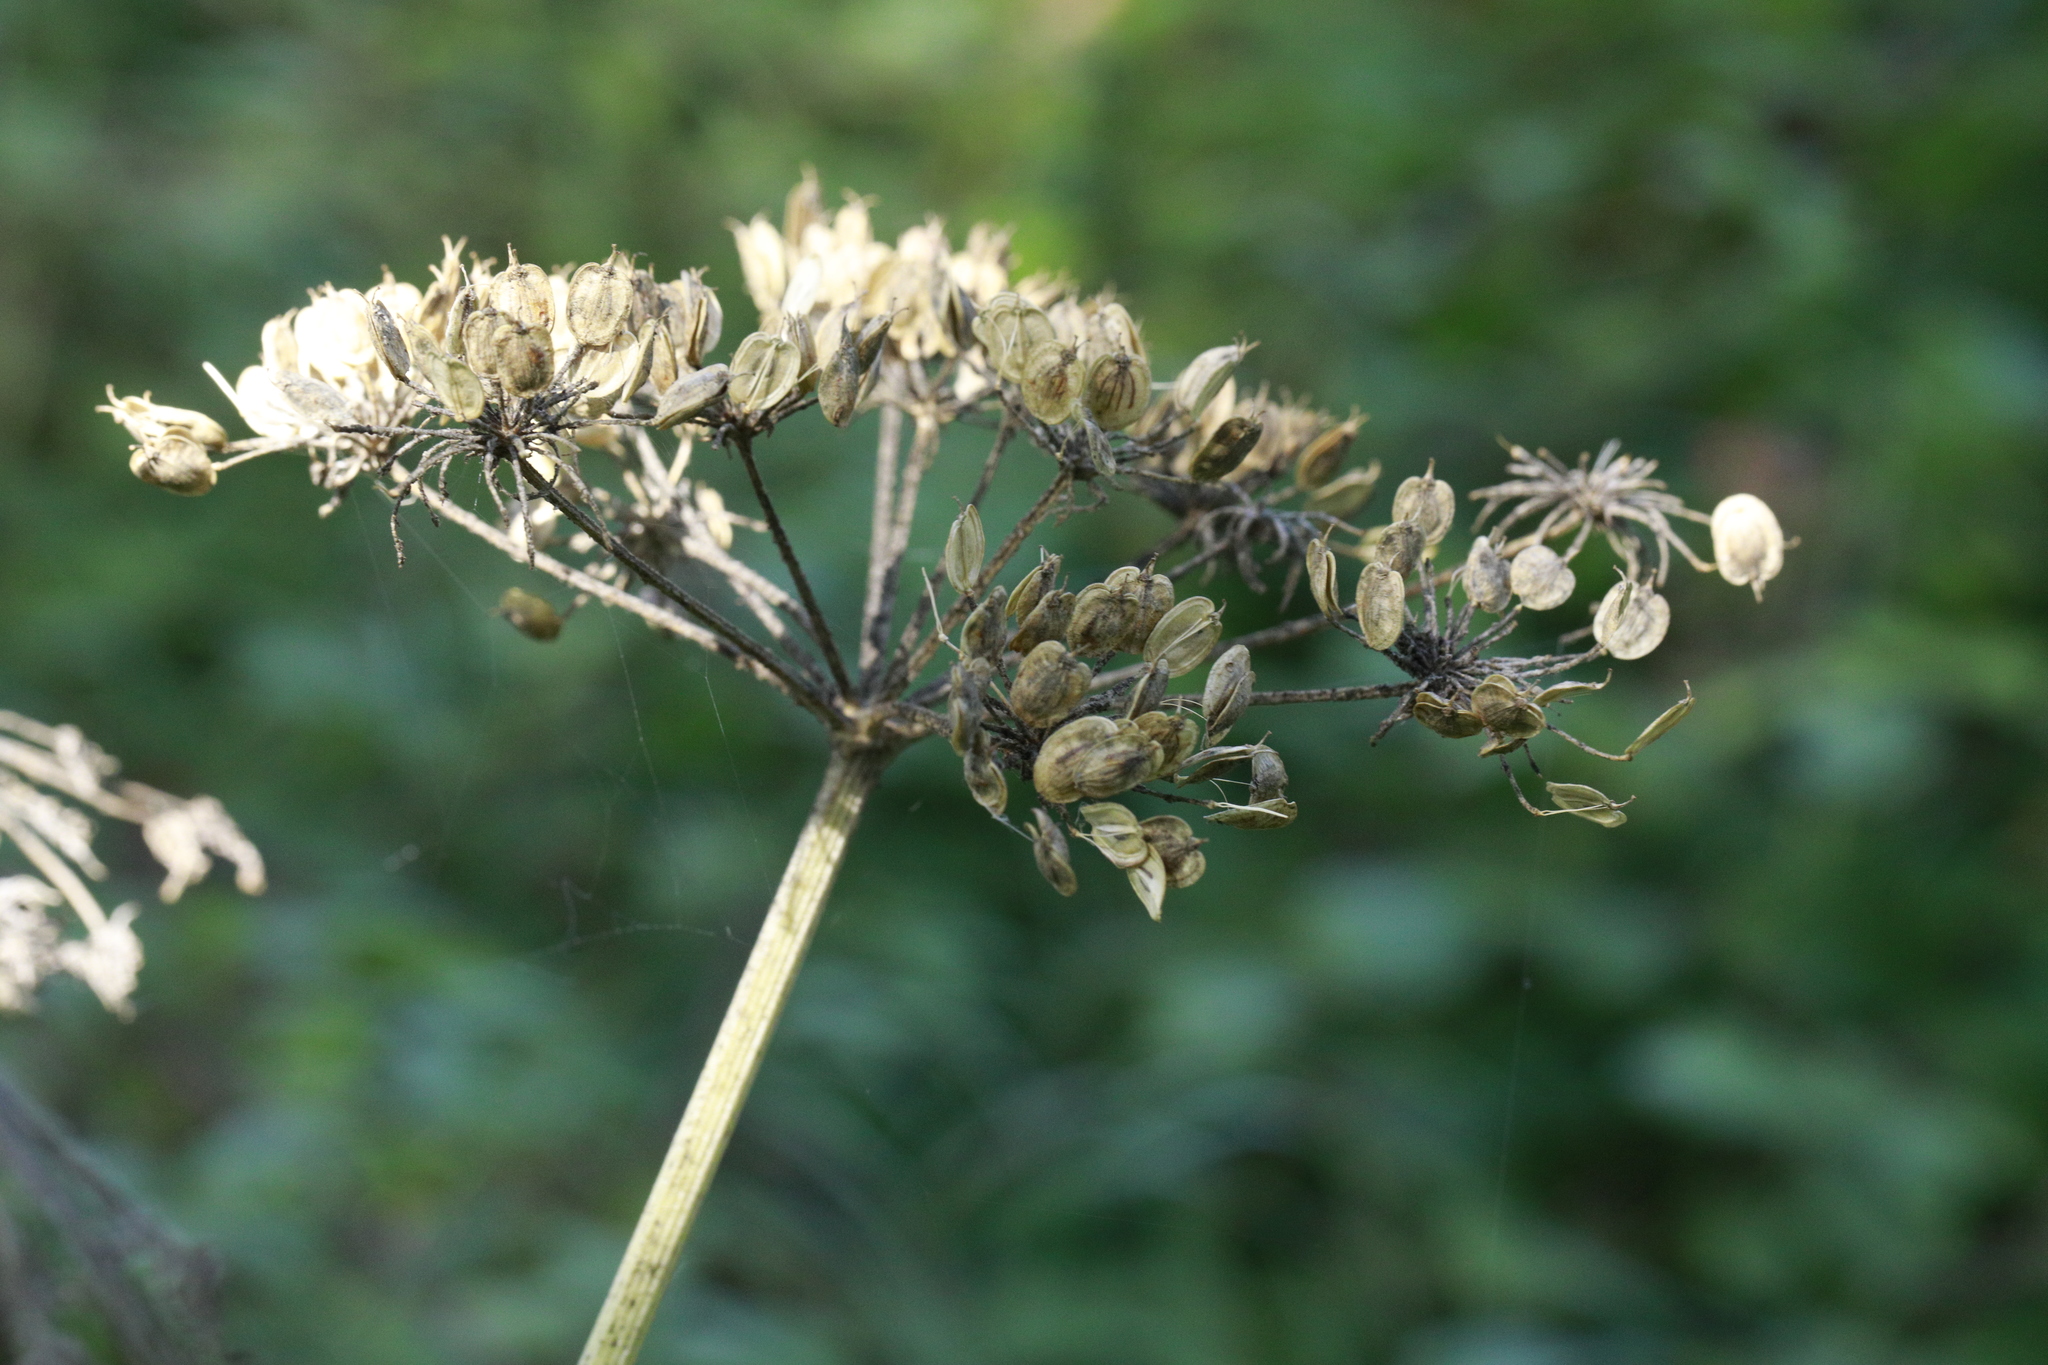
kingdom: Plantae
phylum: Tracheophyta
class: Magnoliopsida
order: Apiales
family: Apiaceae
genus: Heracleum
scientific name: Heracleum sphondylium
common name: Hogweed
